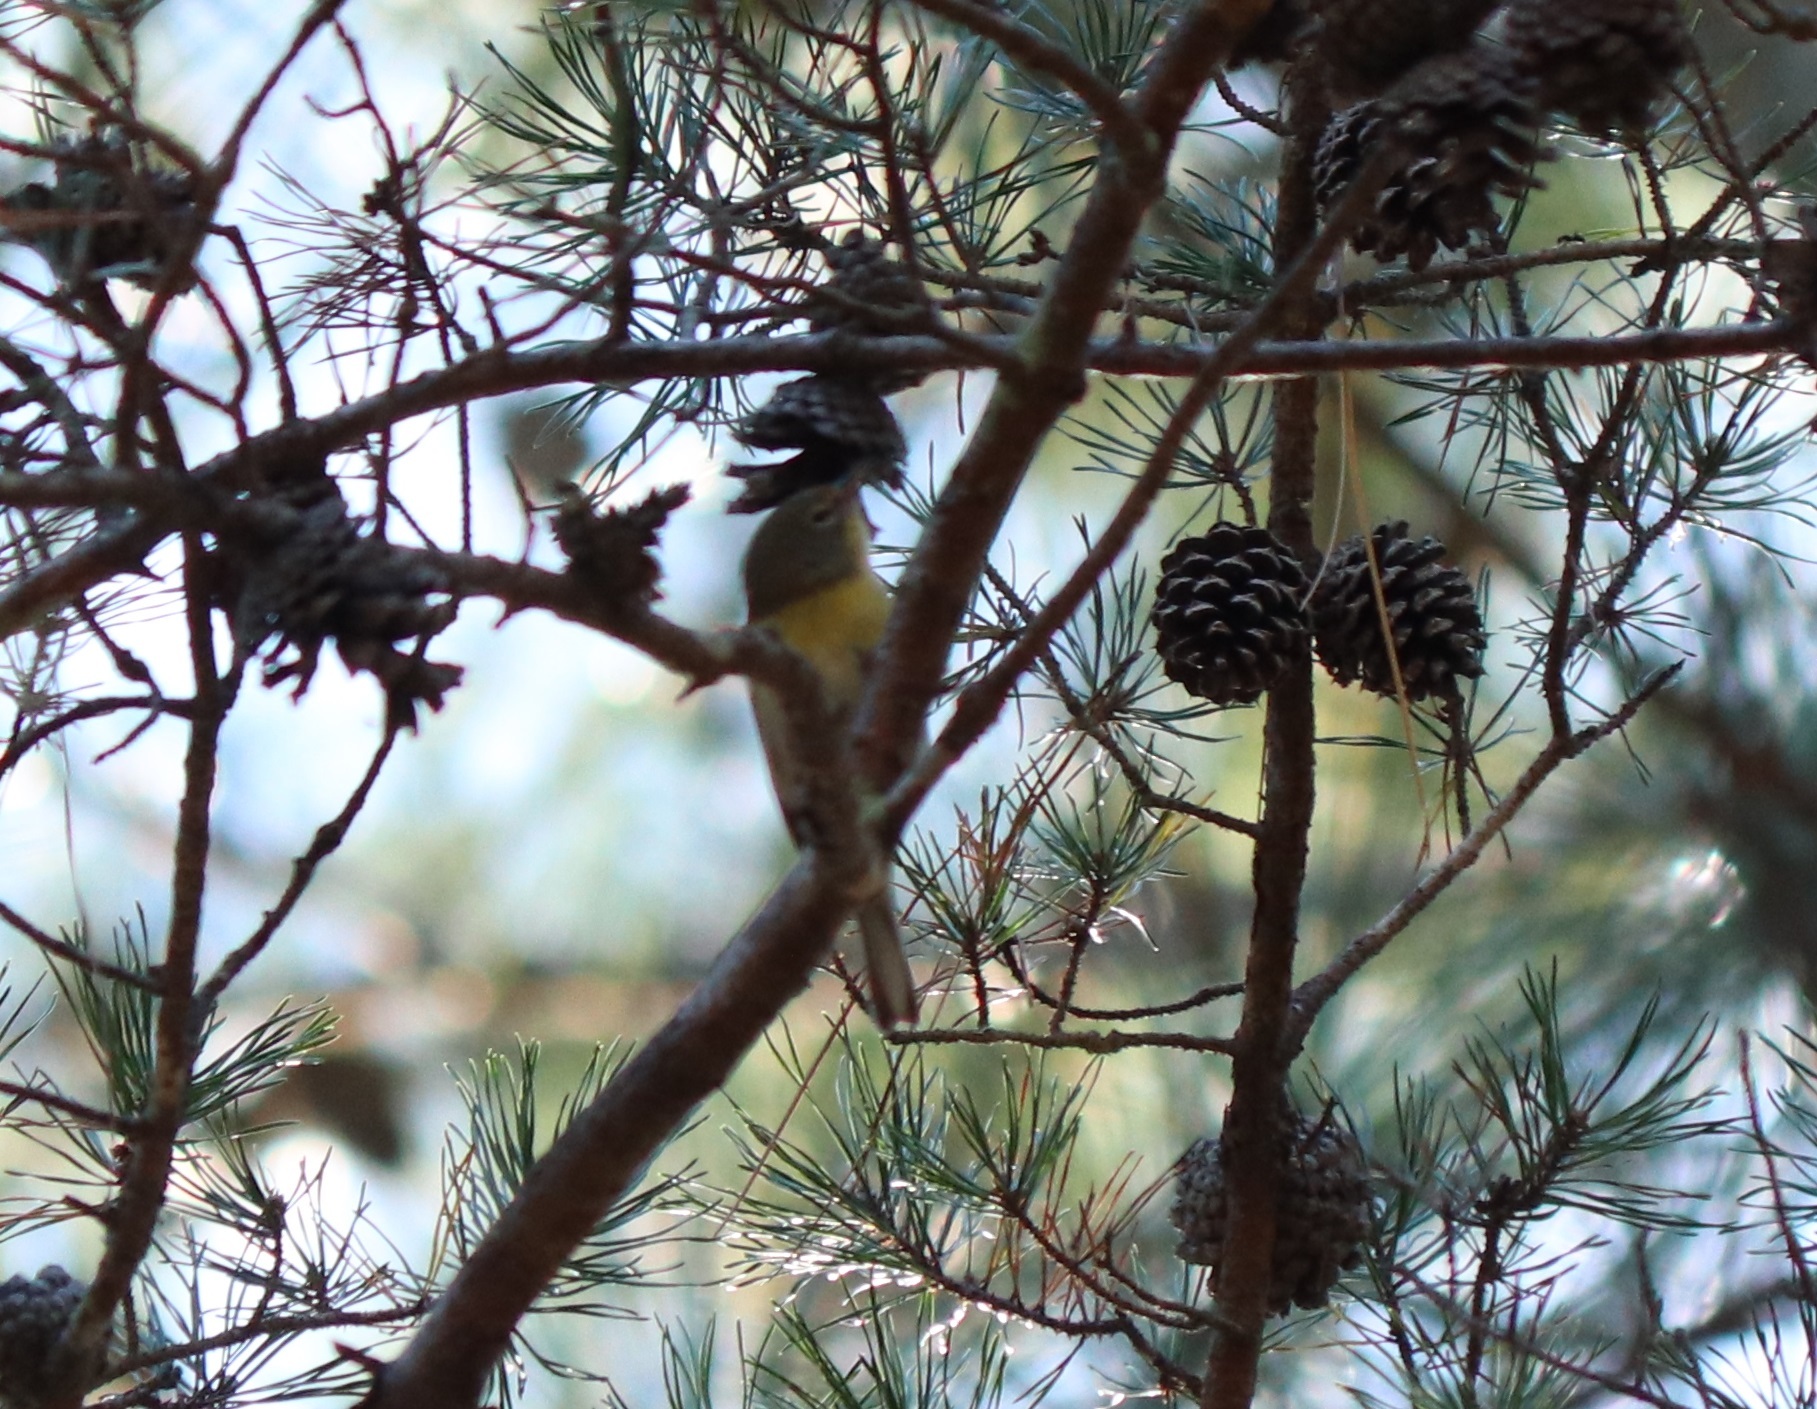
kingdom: Animalia
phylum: Chordata
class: Aves
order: Passeriformes
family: Parulidae
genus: Setophaga
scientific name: Setophaga pinus
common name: Pine warbler
